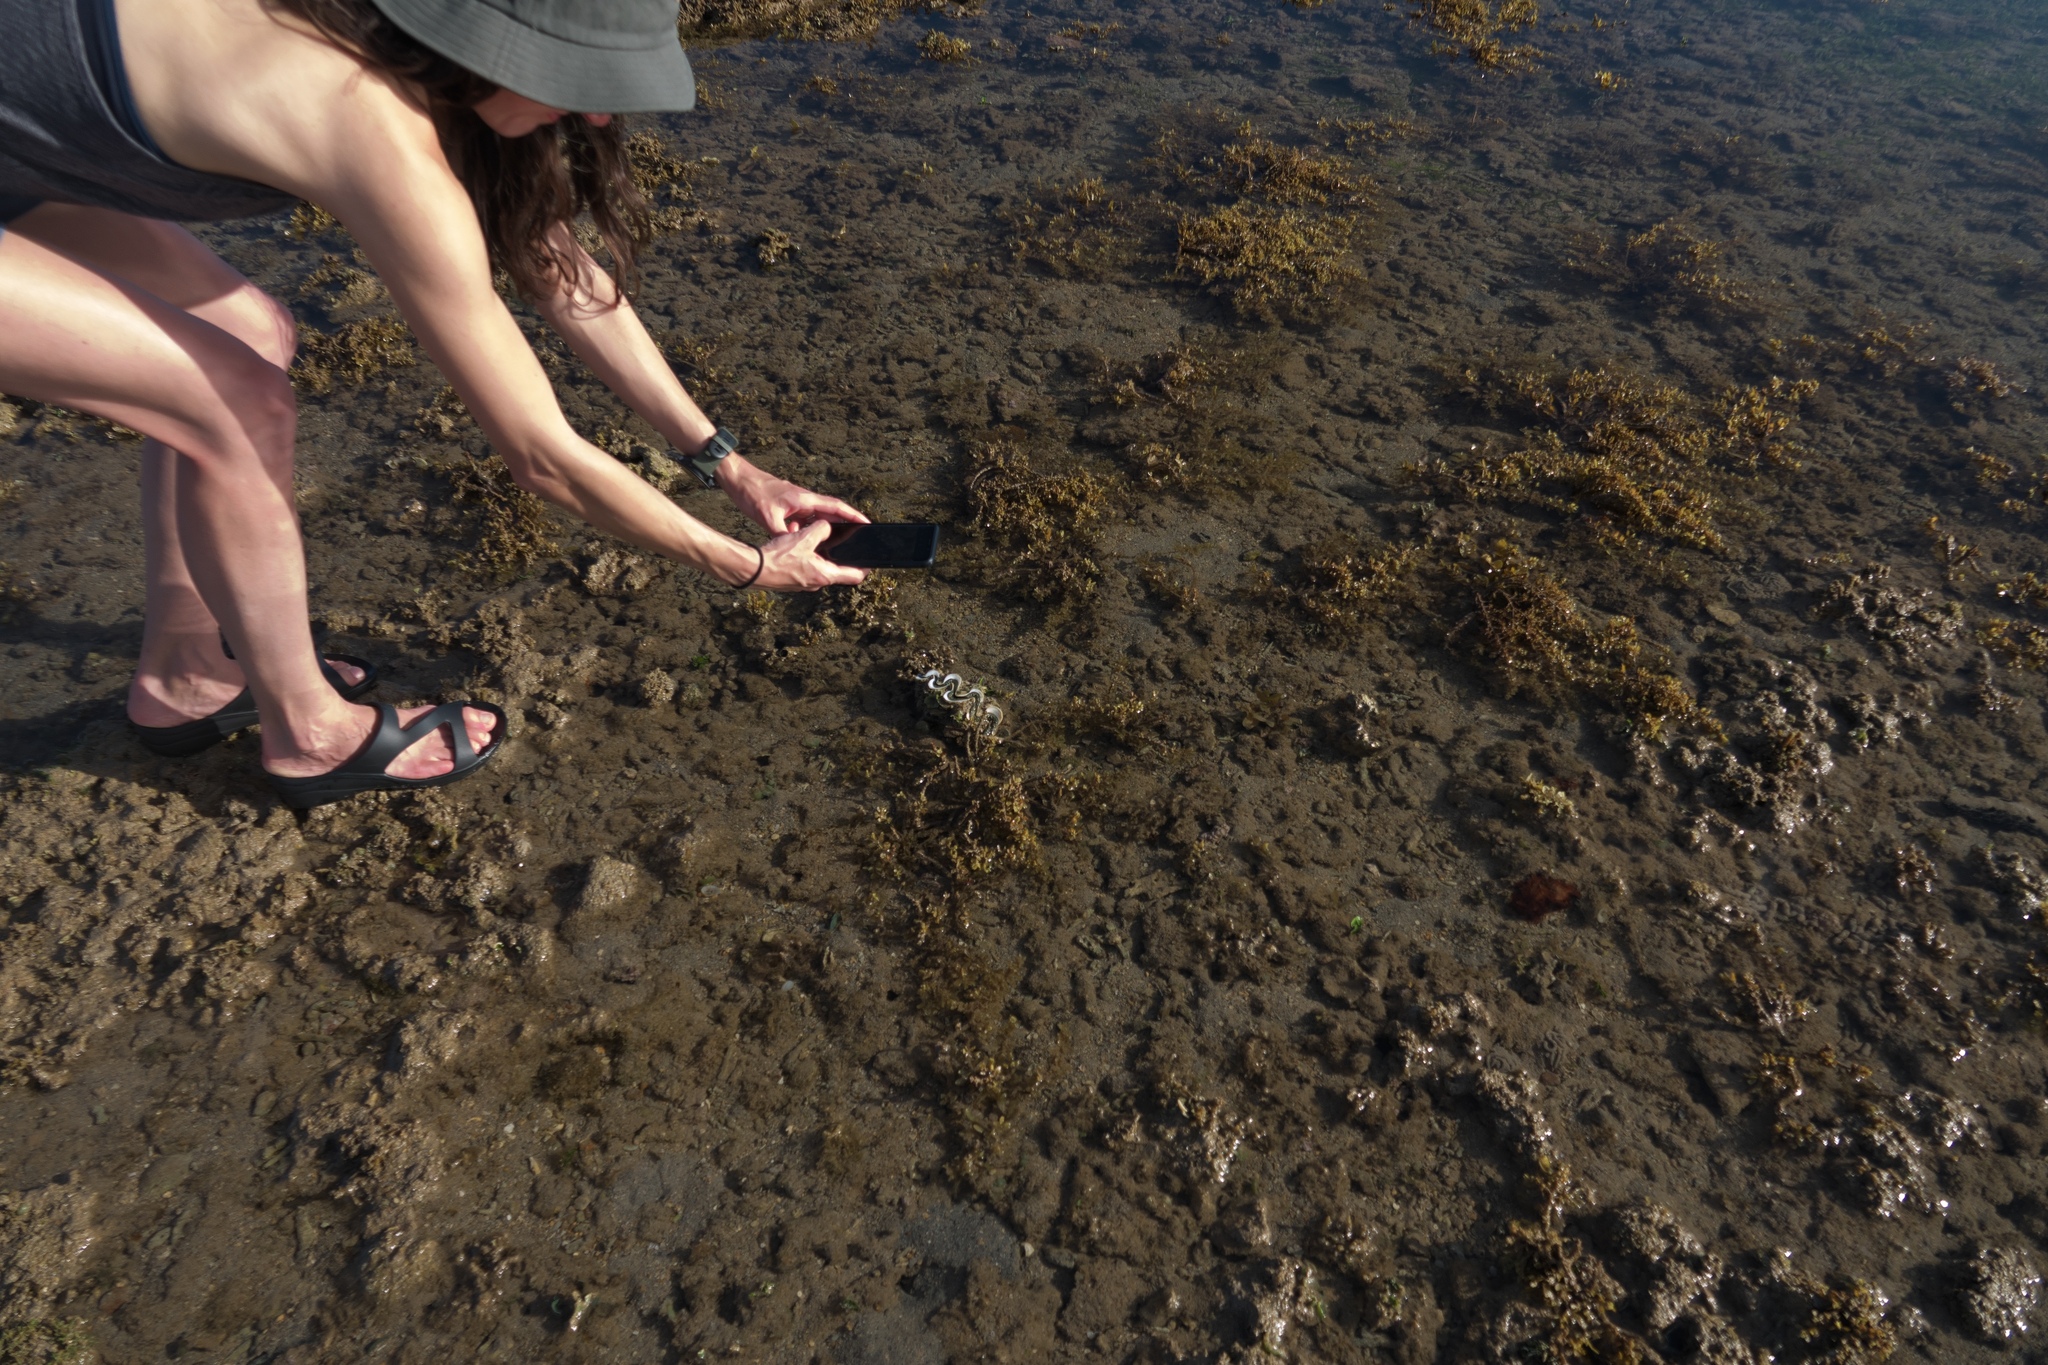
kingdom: Animalia
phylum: Mollusca
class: Bivalvia
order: Cardiida
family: Cardiidae
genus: Tridacna
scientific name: Tridacna maxima
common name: Small giant clam
